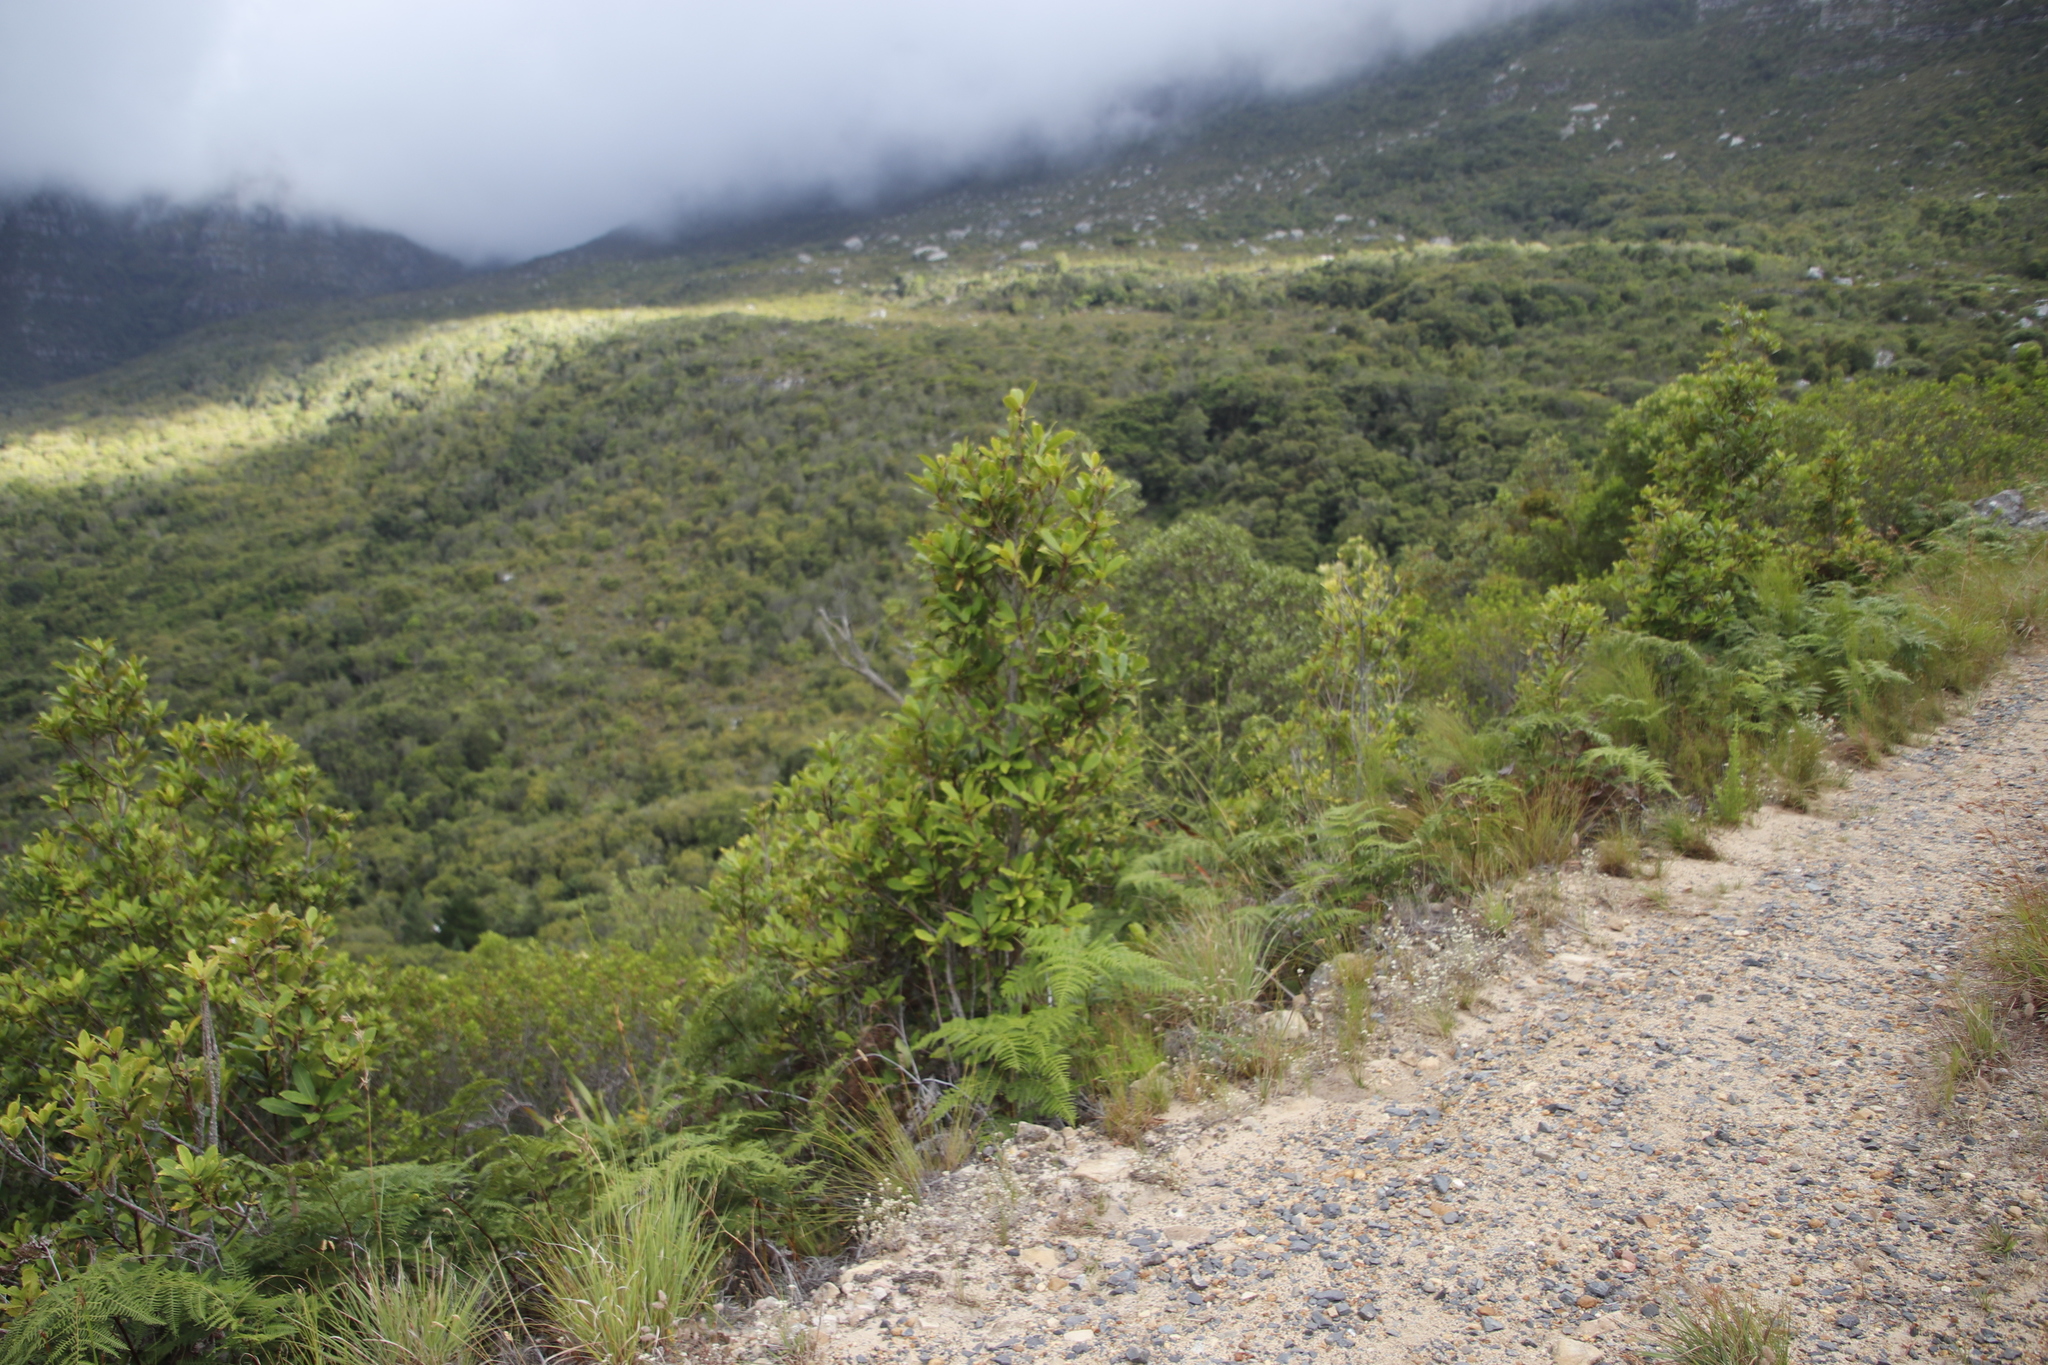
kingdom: Plantae
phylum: Tracheophyta
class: Magnoliopsida
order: Ericales
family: Primulaceae
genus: Myrsine
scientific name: Myrsine melanophloeos
